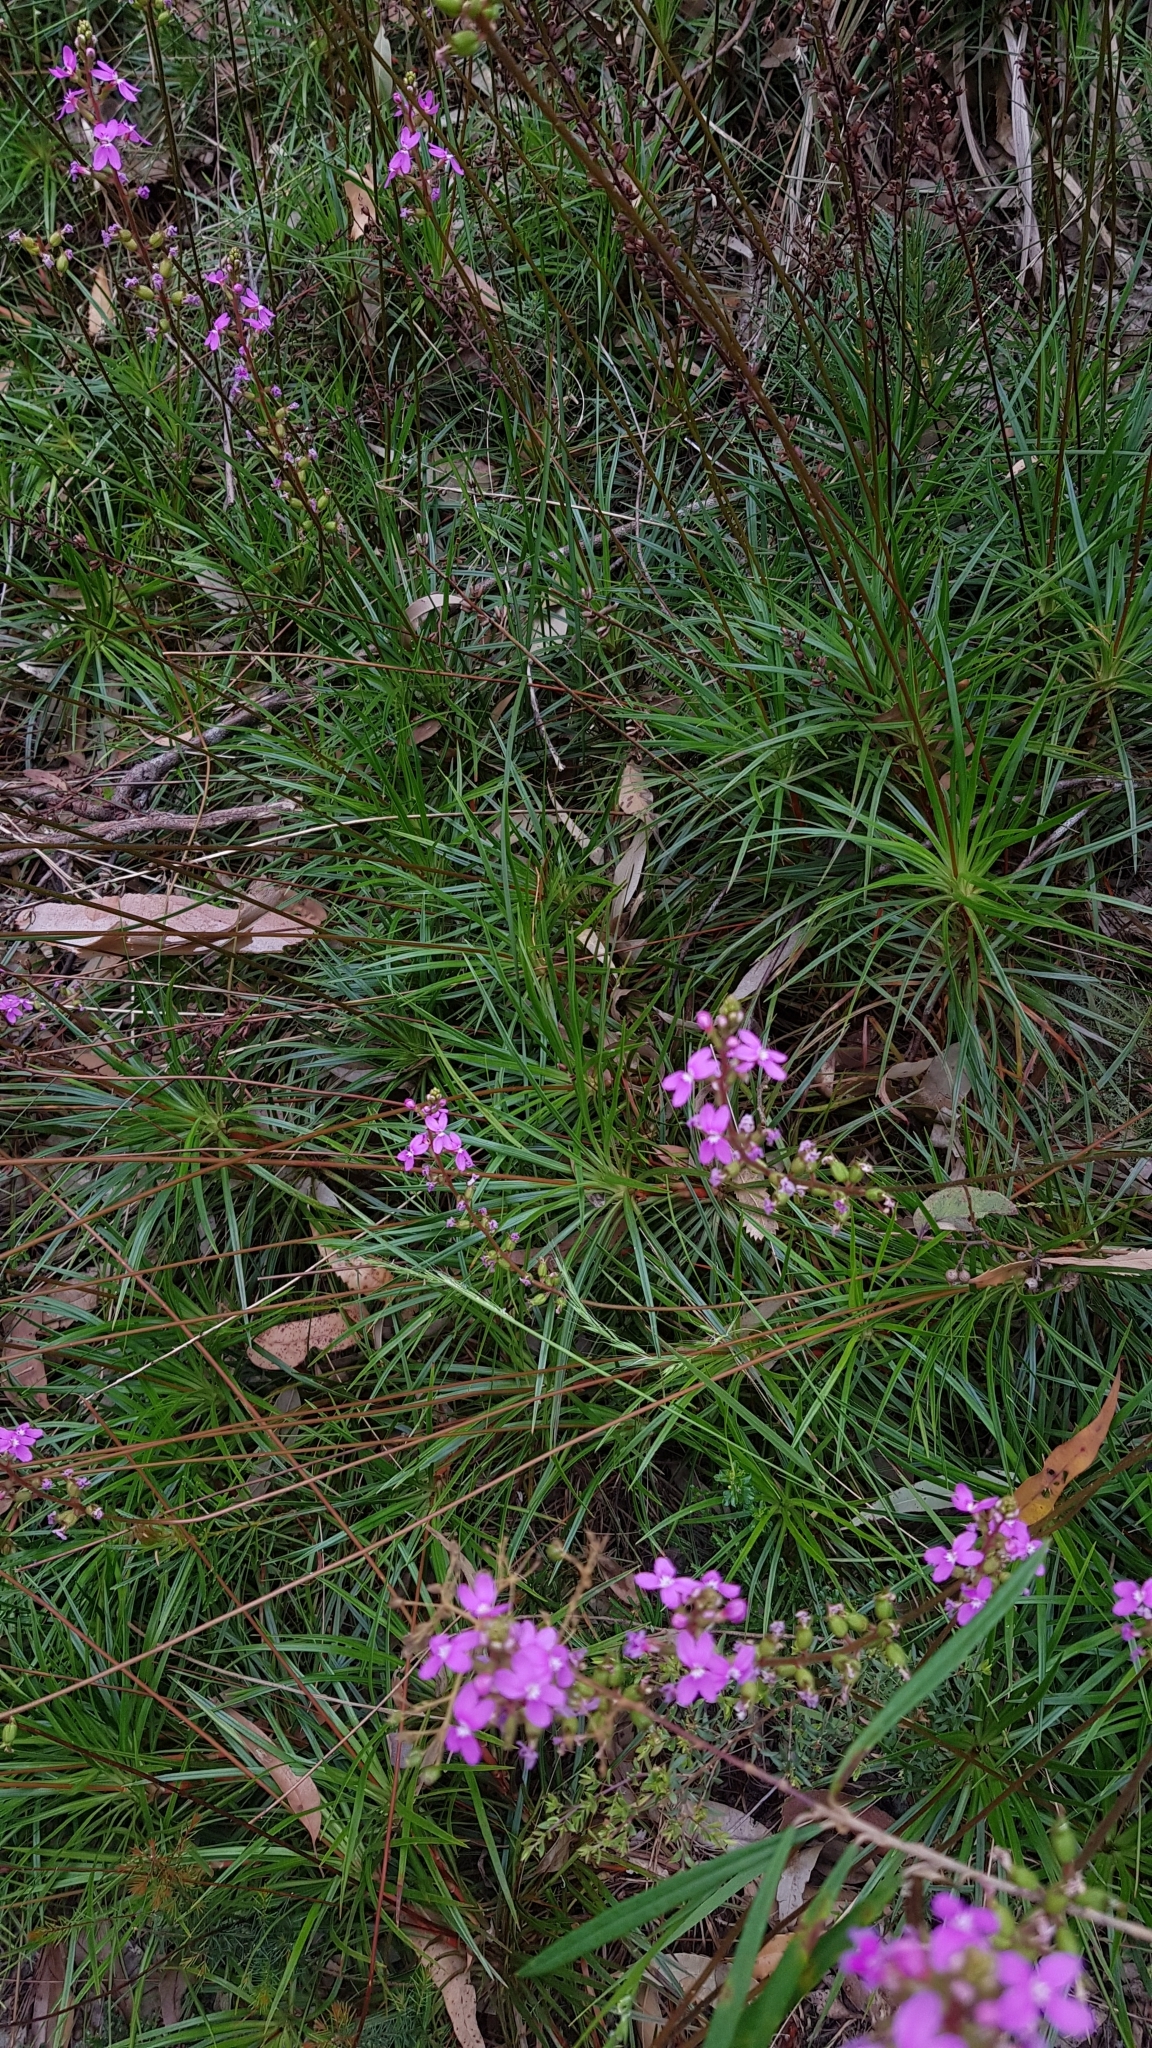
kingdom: Plantae
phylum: Tracheophyta
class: Magnoliopsida
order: Asterales
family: Stylidiaceae
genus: Stylidium
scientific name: Stylidium productum
